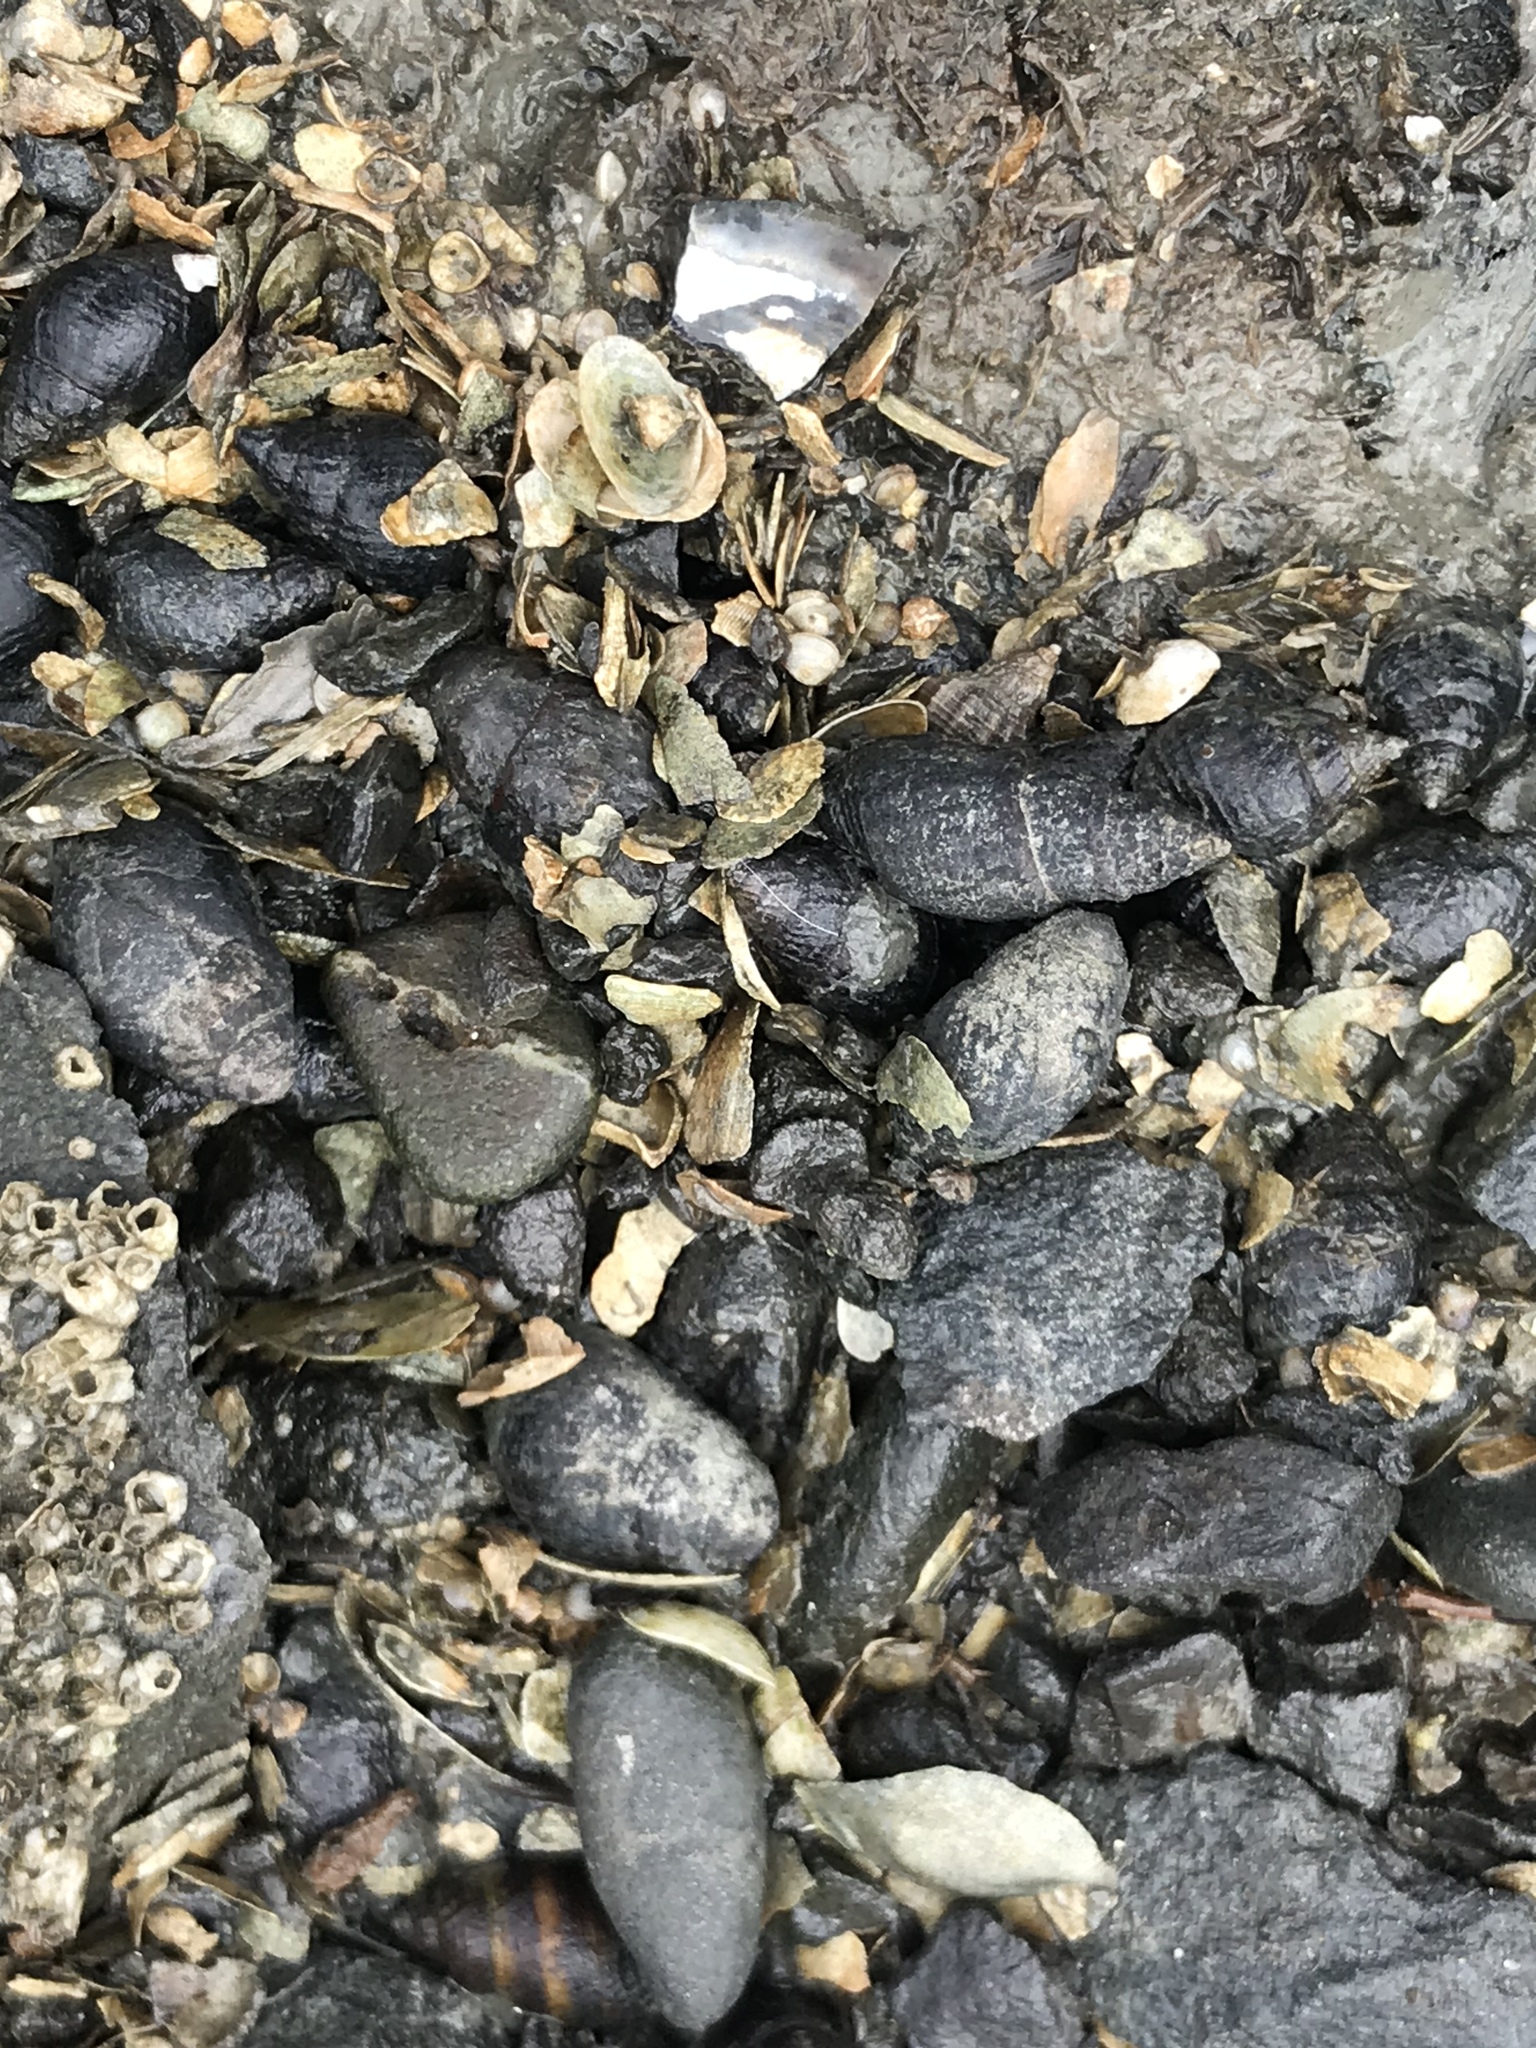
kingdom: Animalia
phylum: Mollusca
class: Gastropoda
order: Neogastropoda
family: Nassariidae
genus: Ilyanassa
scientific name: Ilyanassa obsoleta
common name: Eastern mudsnail
